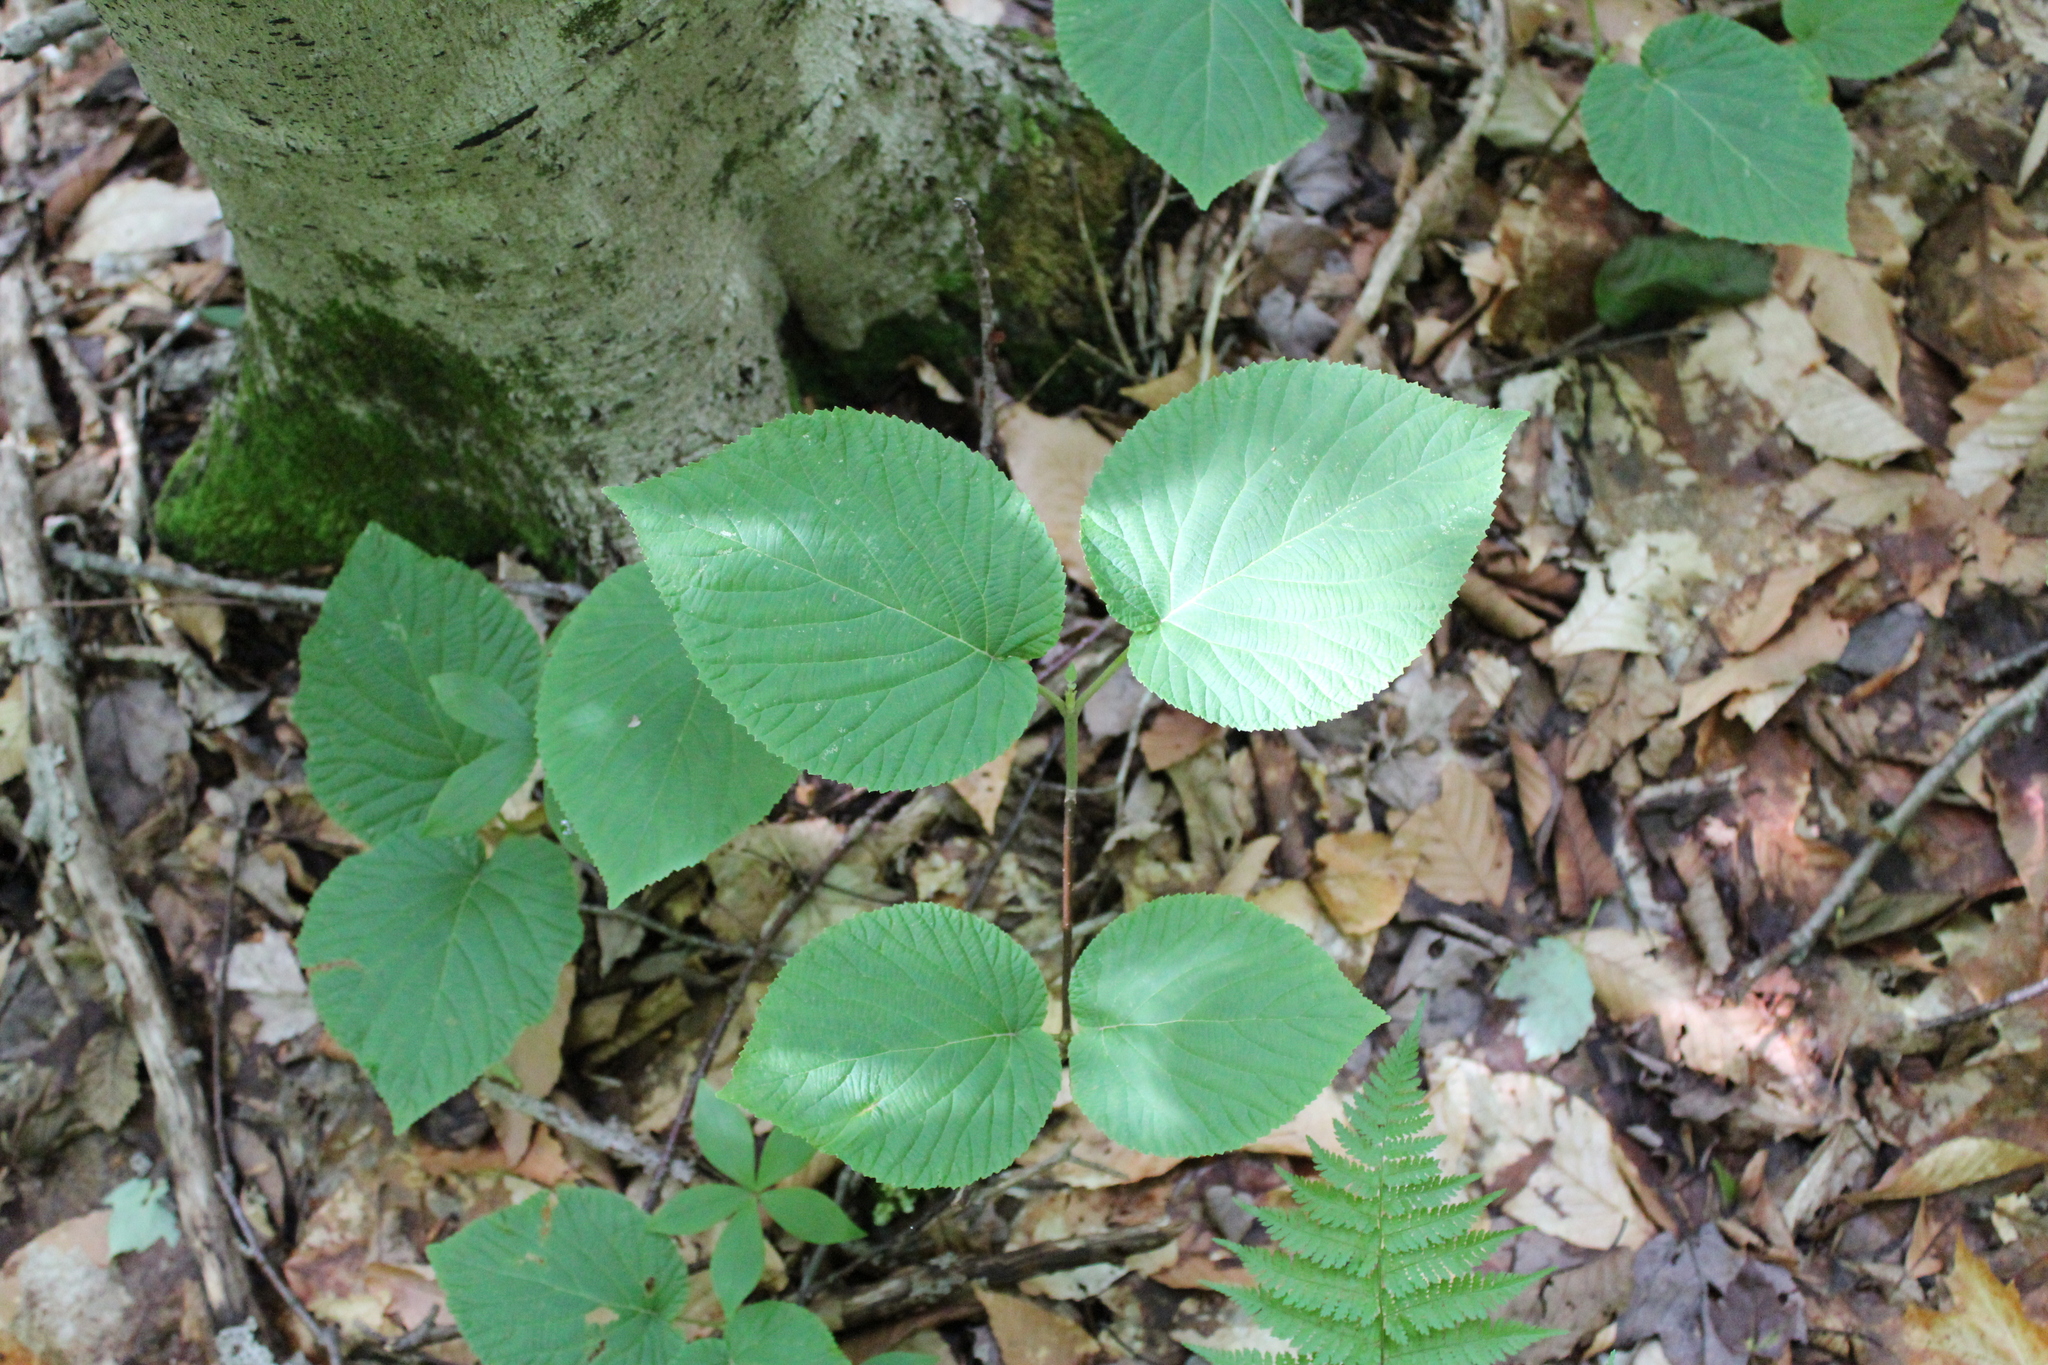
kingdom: Plantae
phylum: Tracheophyta
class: Magnoliopsida
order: Dipsacales
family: Viburnaceae
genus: Viburnum
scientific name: Viburnum lantanoides
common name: Hobblebush
